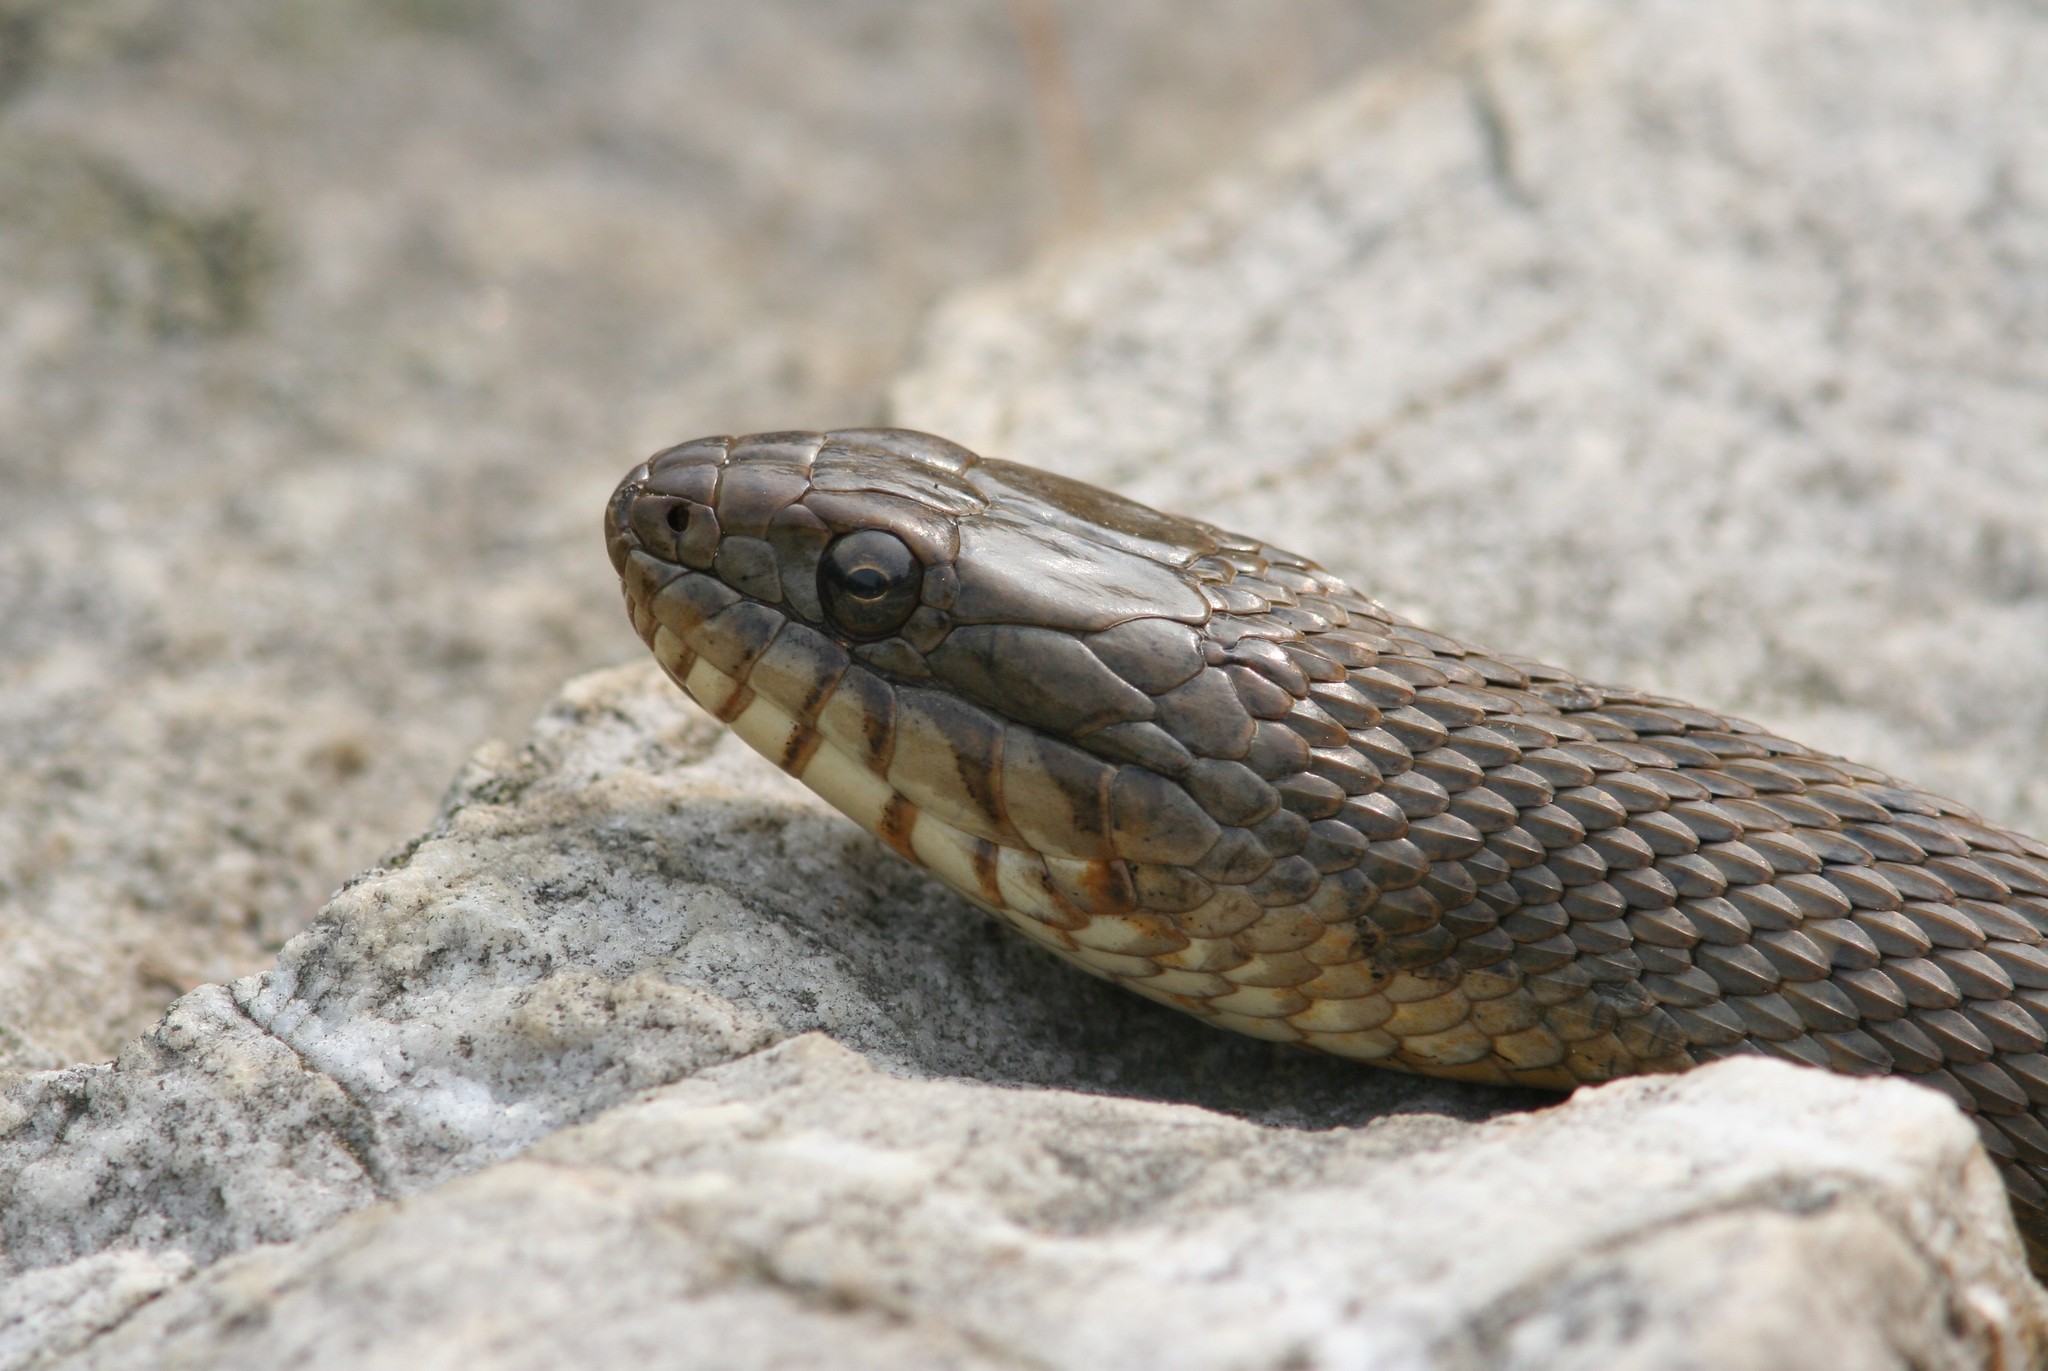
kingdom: Animalia
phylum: Chordata
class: Squamata
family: Colubridae
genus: Nerodia
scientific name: Nerodia sipedon
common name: Northern water snake
